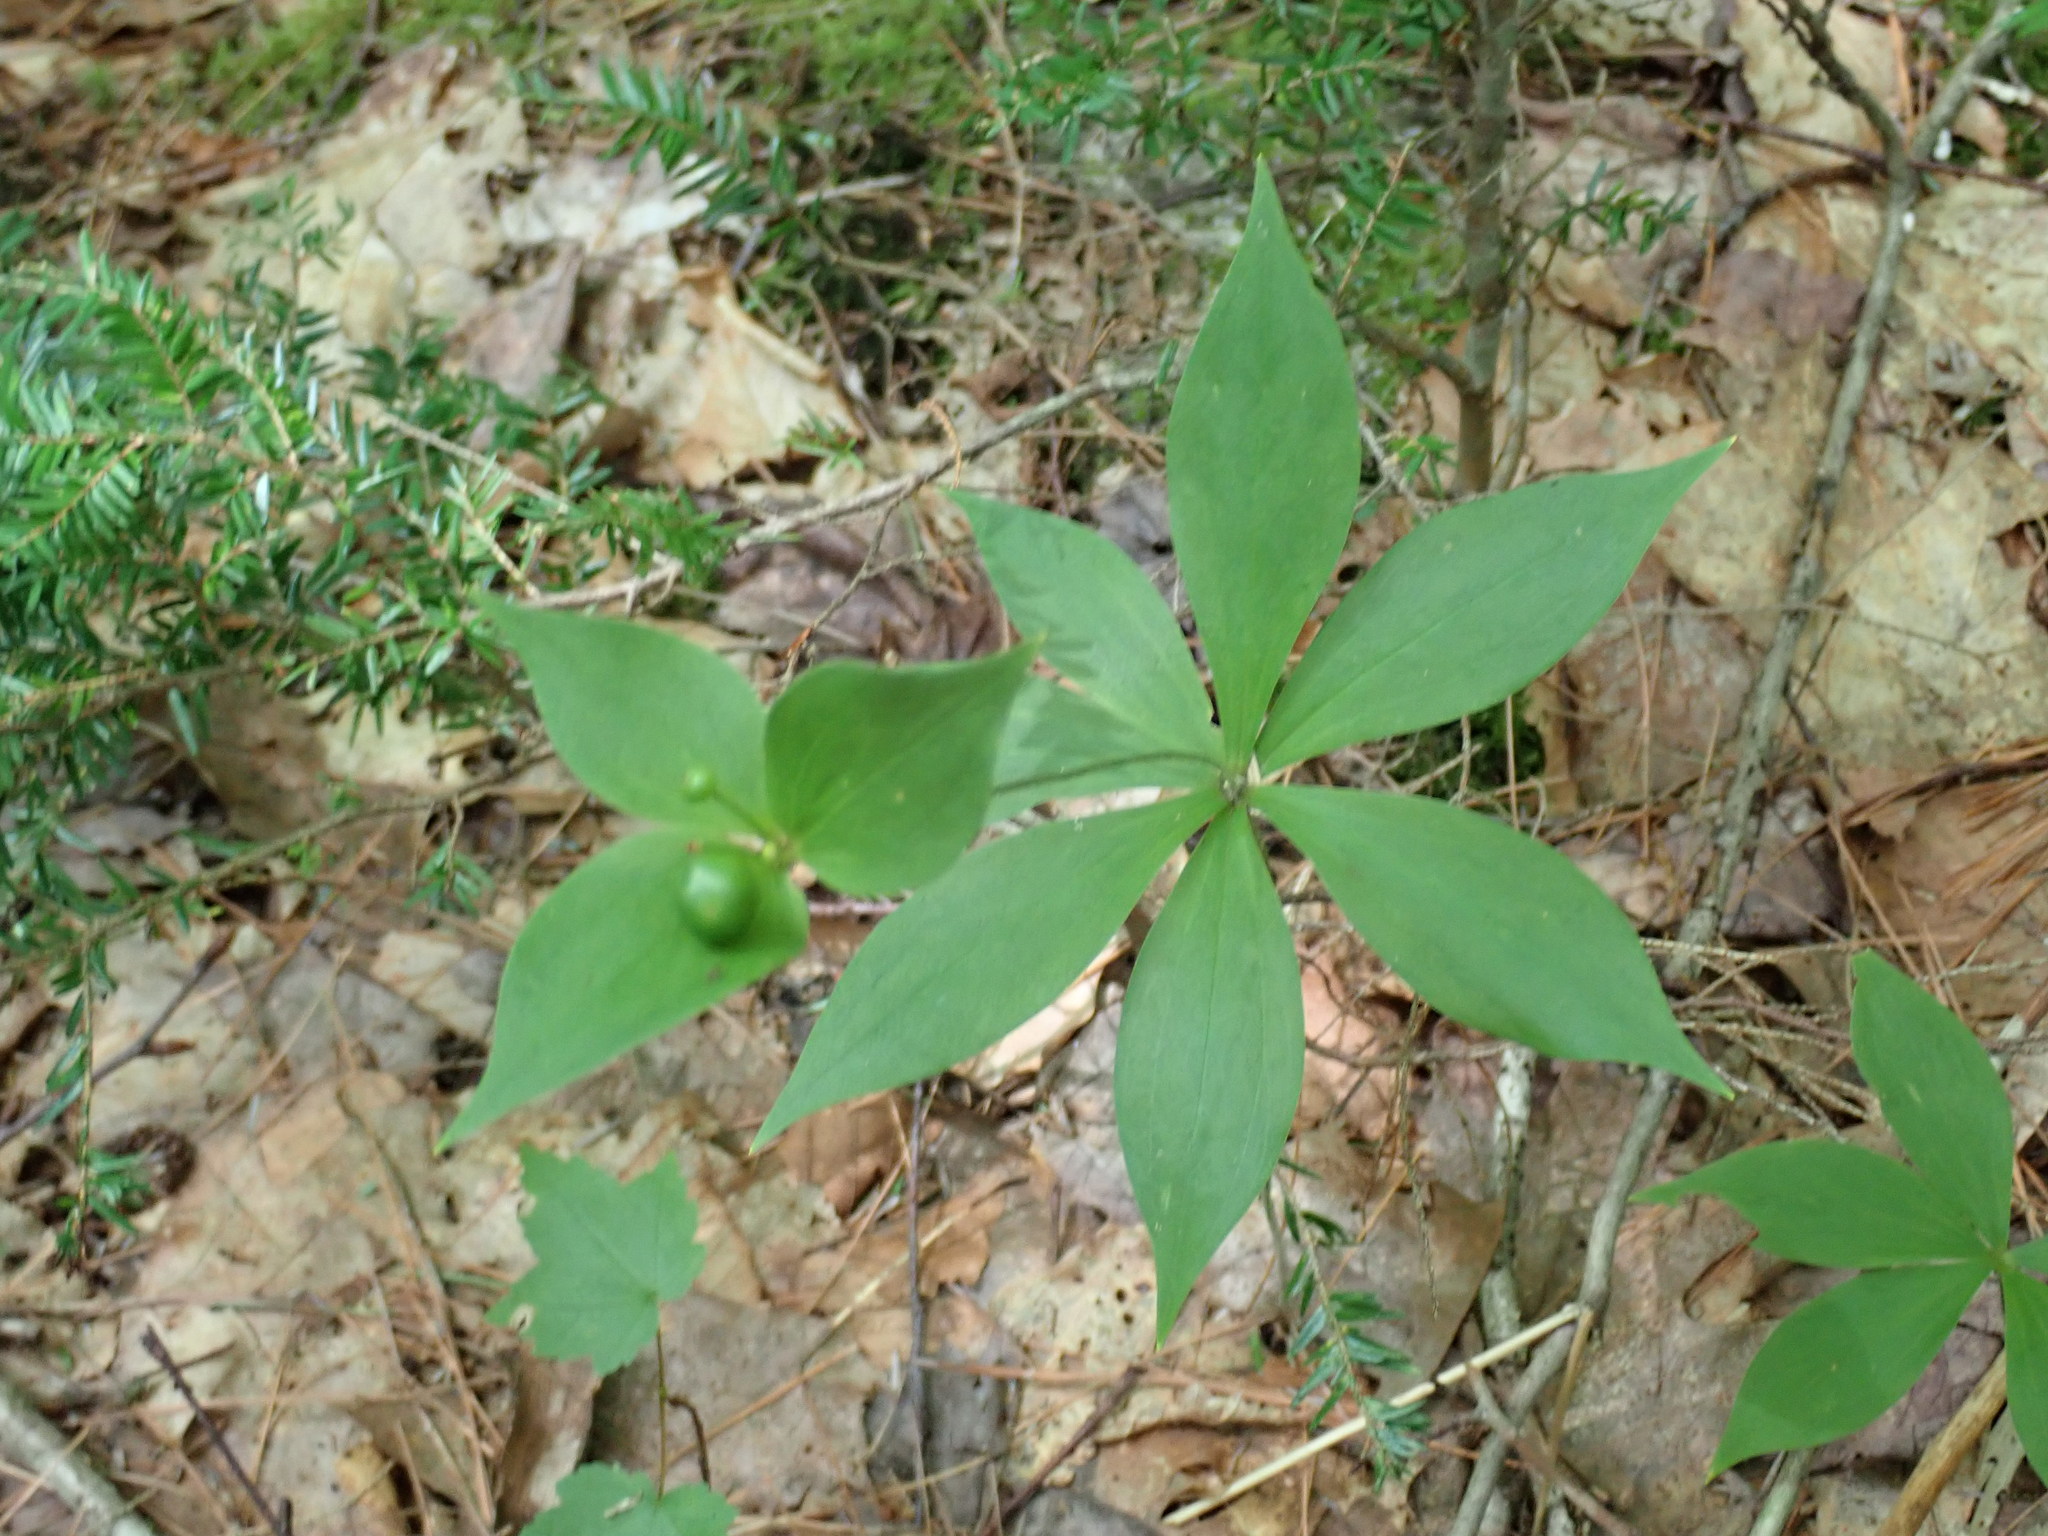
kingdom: Plantae
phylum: Tracheophyta
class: Liliopsida
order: Liliales
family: Liliaceae
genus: Medeola
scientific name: Medeola virginiana
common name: Indian cucumber-root
